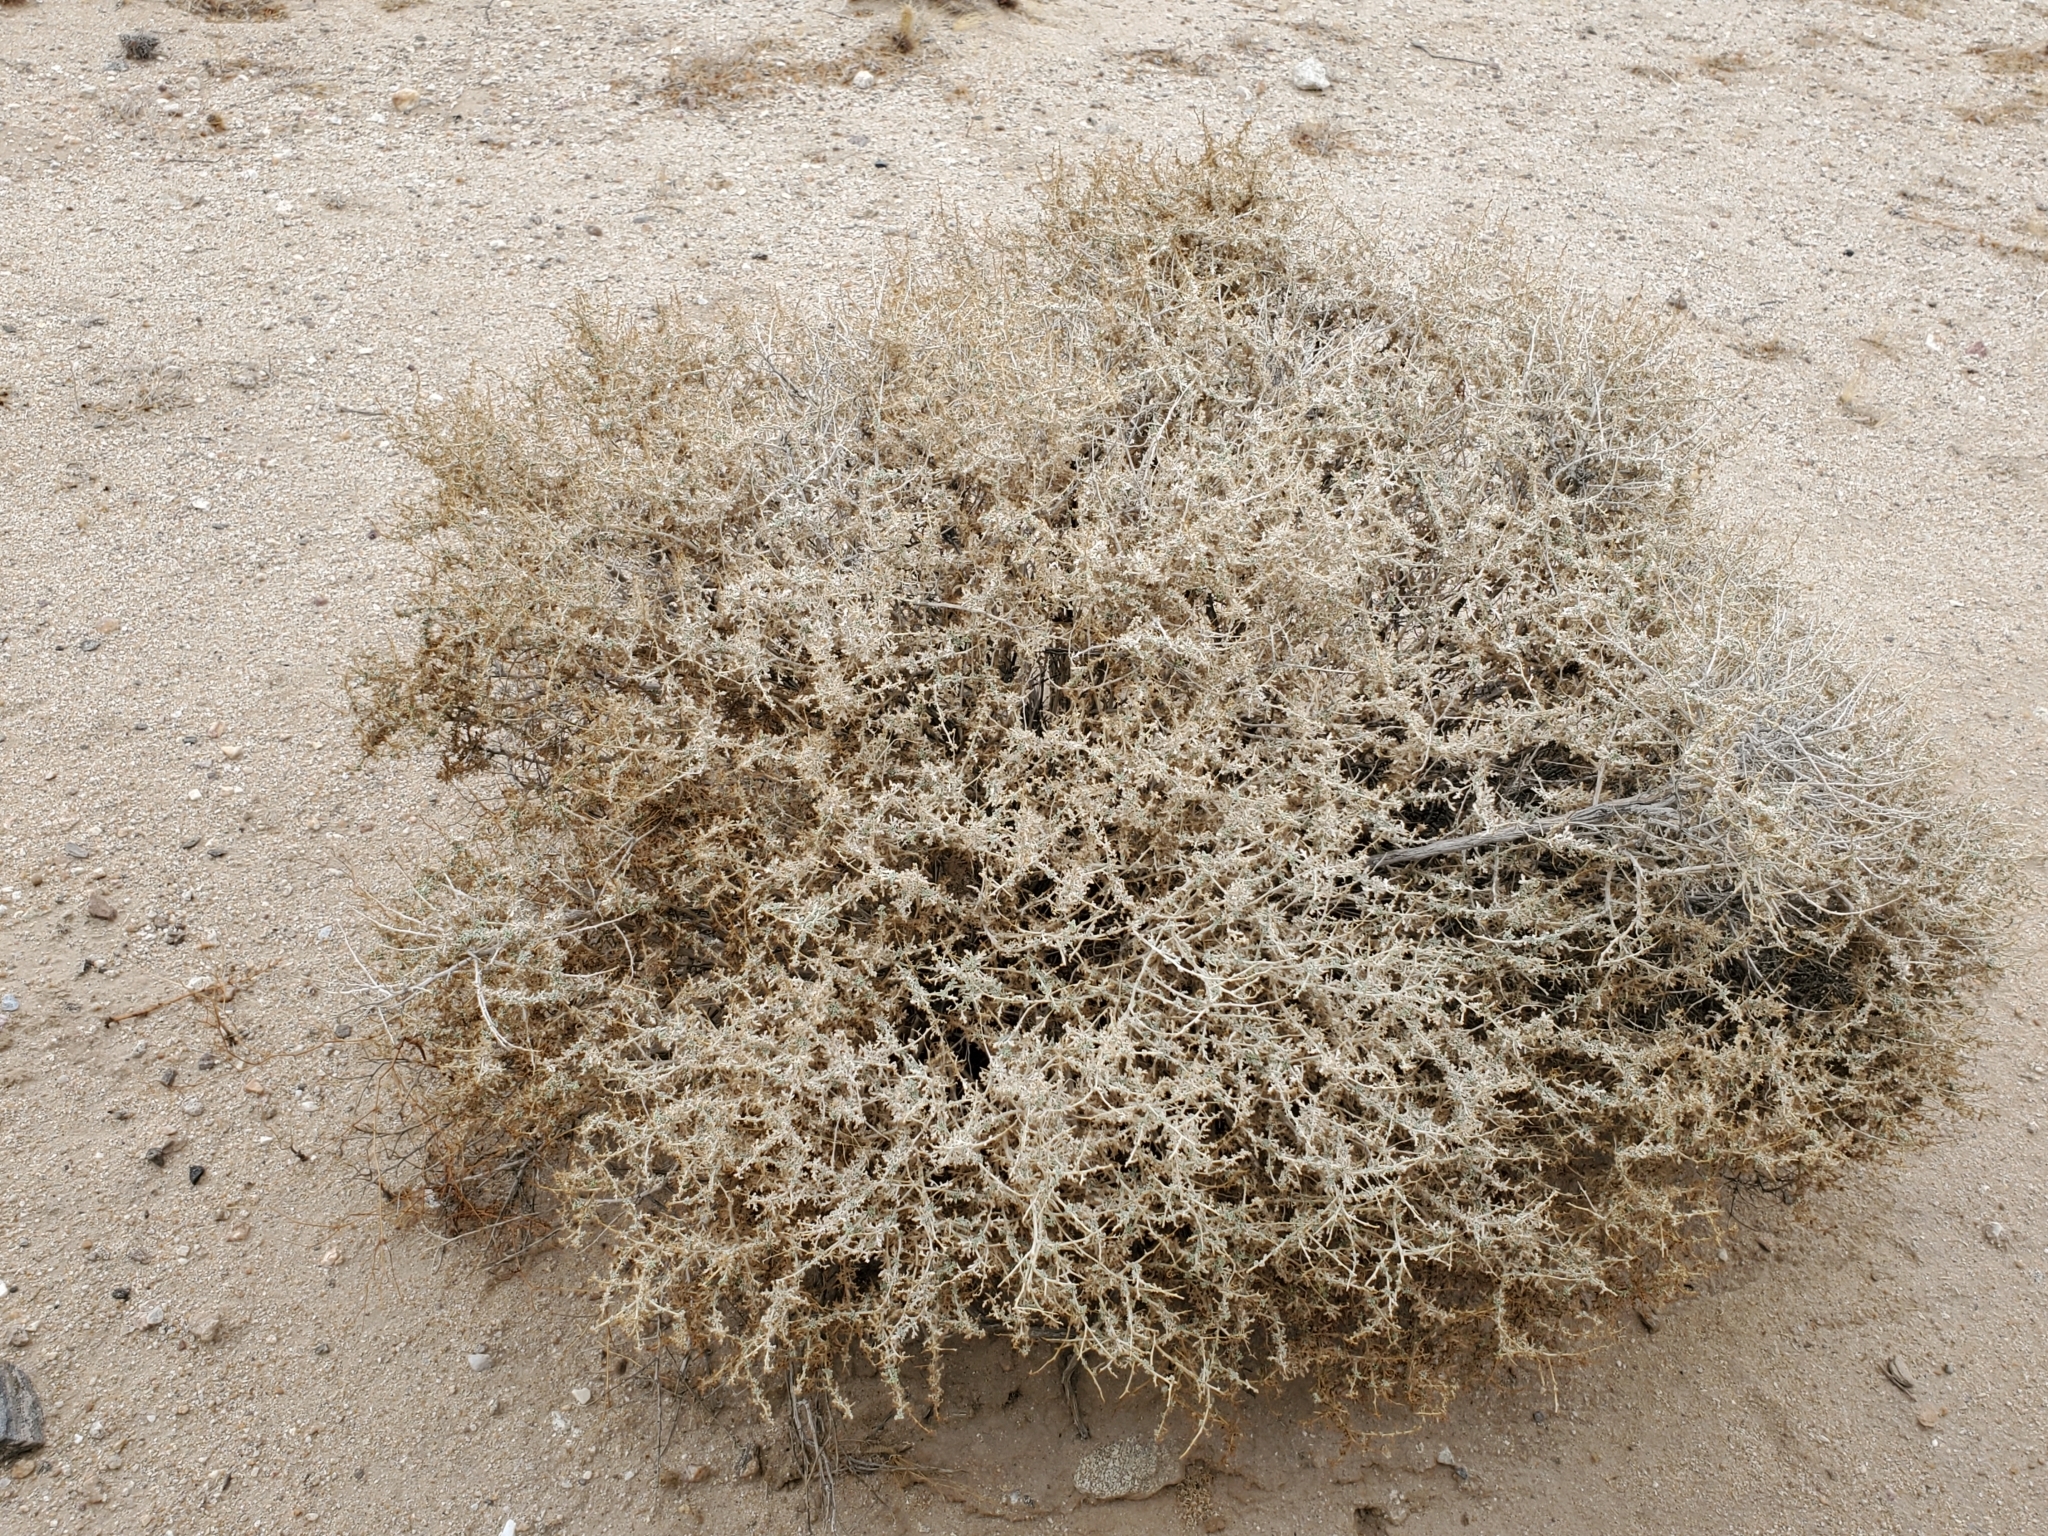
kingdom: Plantae
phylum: Tracheophyta
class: Magnoliopsida
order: Asterales
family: Asteraceae
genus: Ambrosia
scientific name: Ambrosia dumosa
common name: Bur-sage
